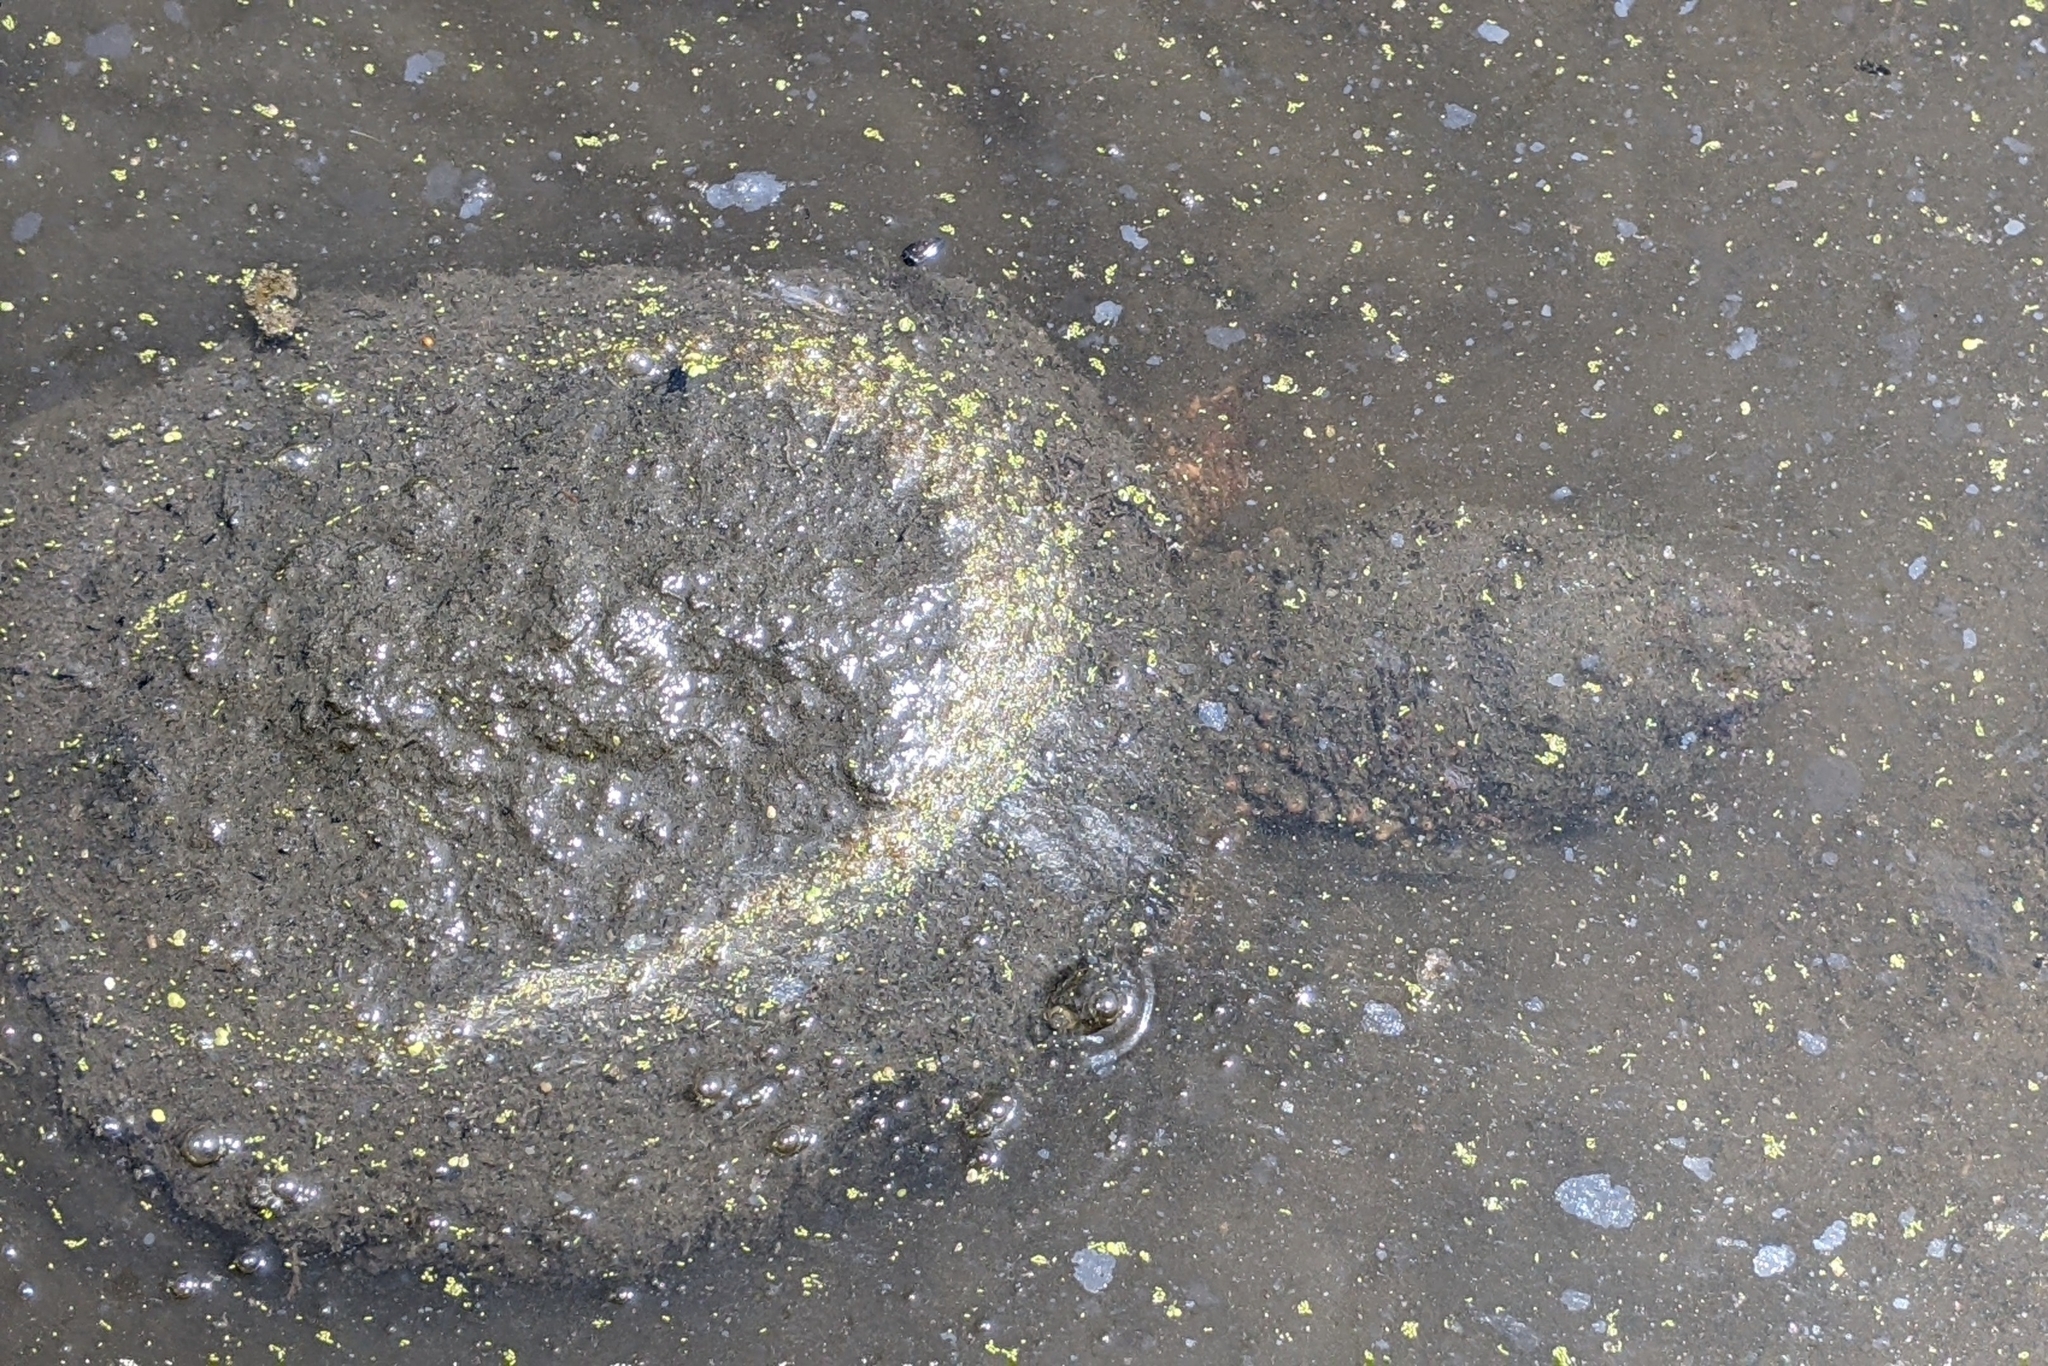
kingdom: Animalia
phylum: Chordata
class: Testudines
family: Chelydridae
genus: Chelydra
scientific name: Chelydra serpentina
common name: Common snapping turtle
